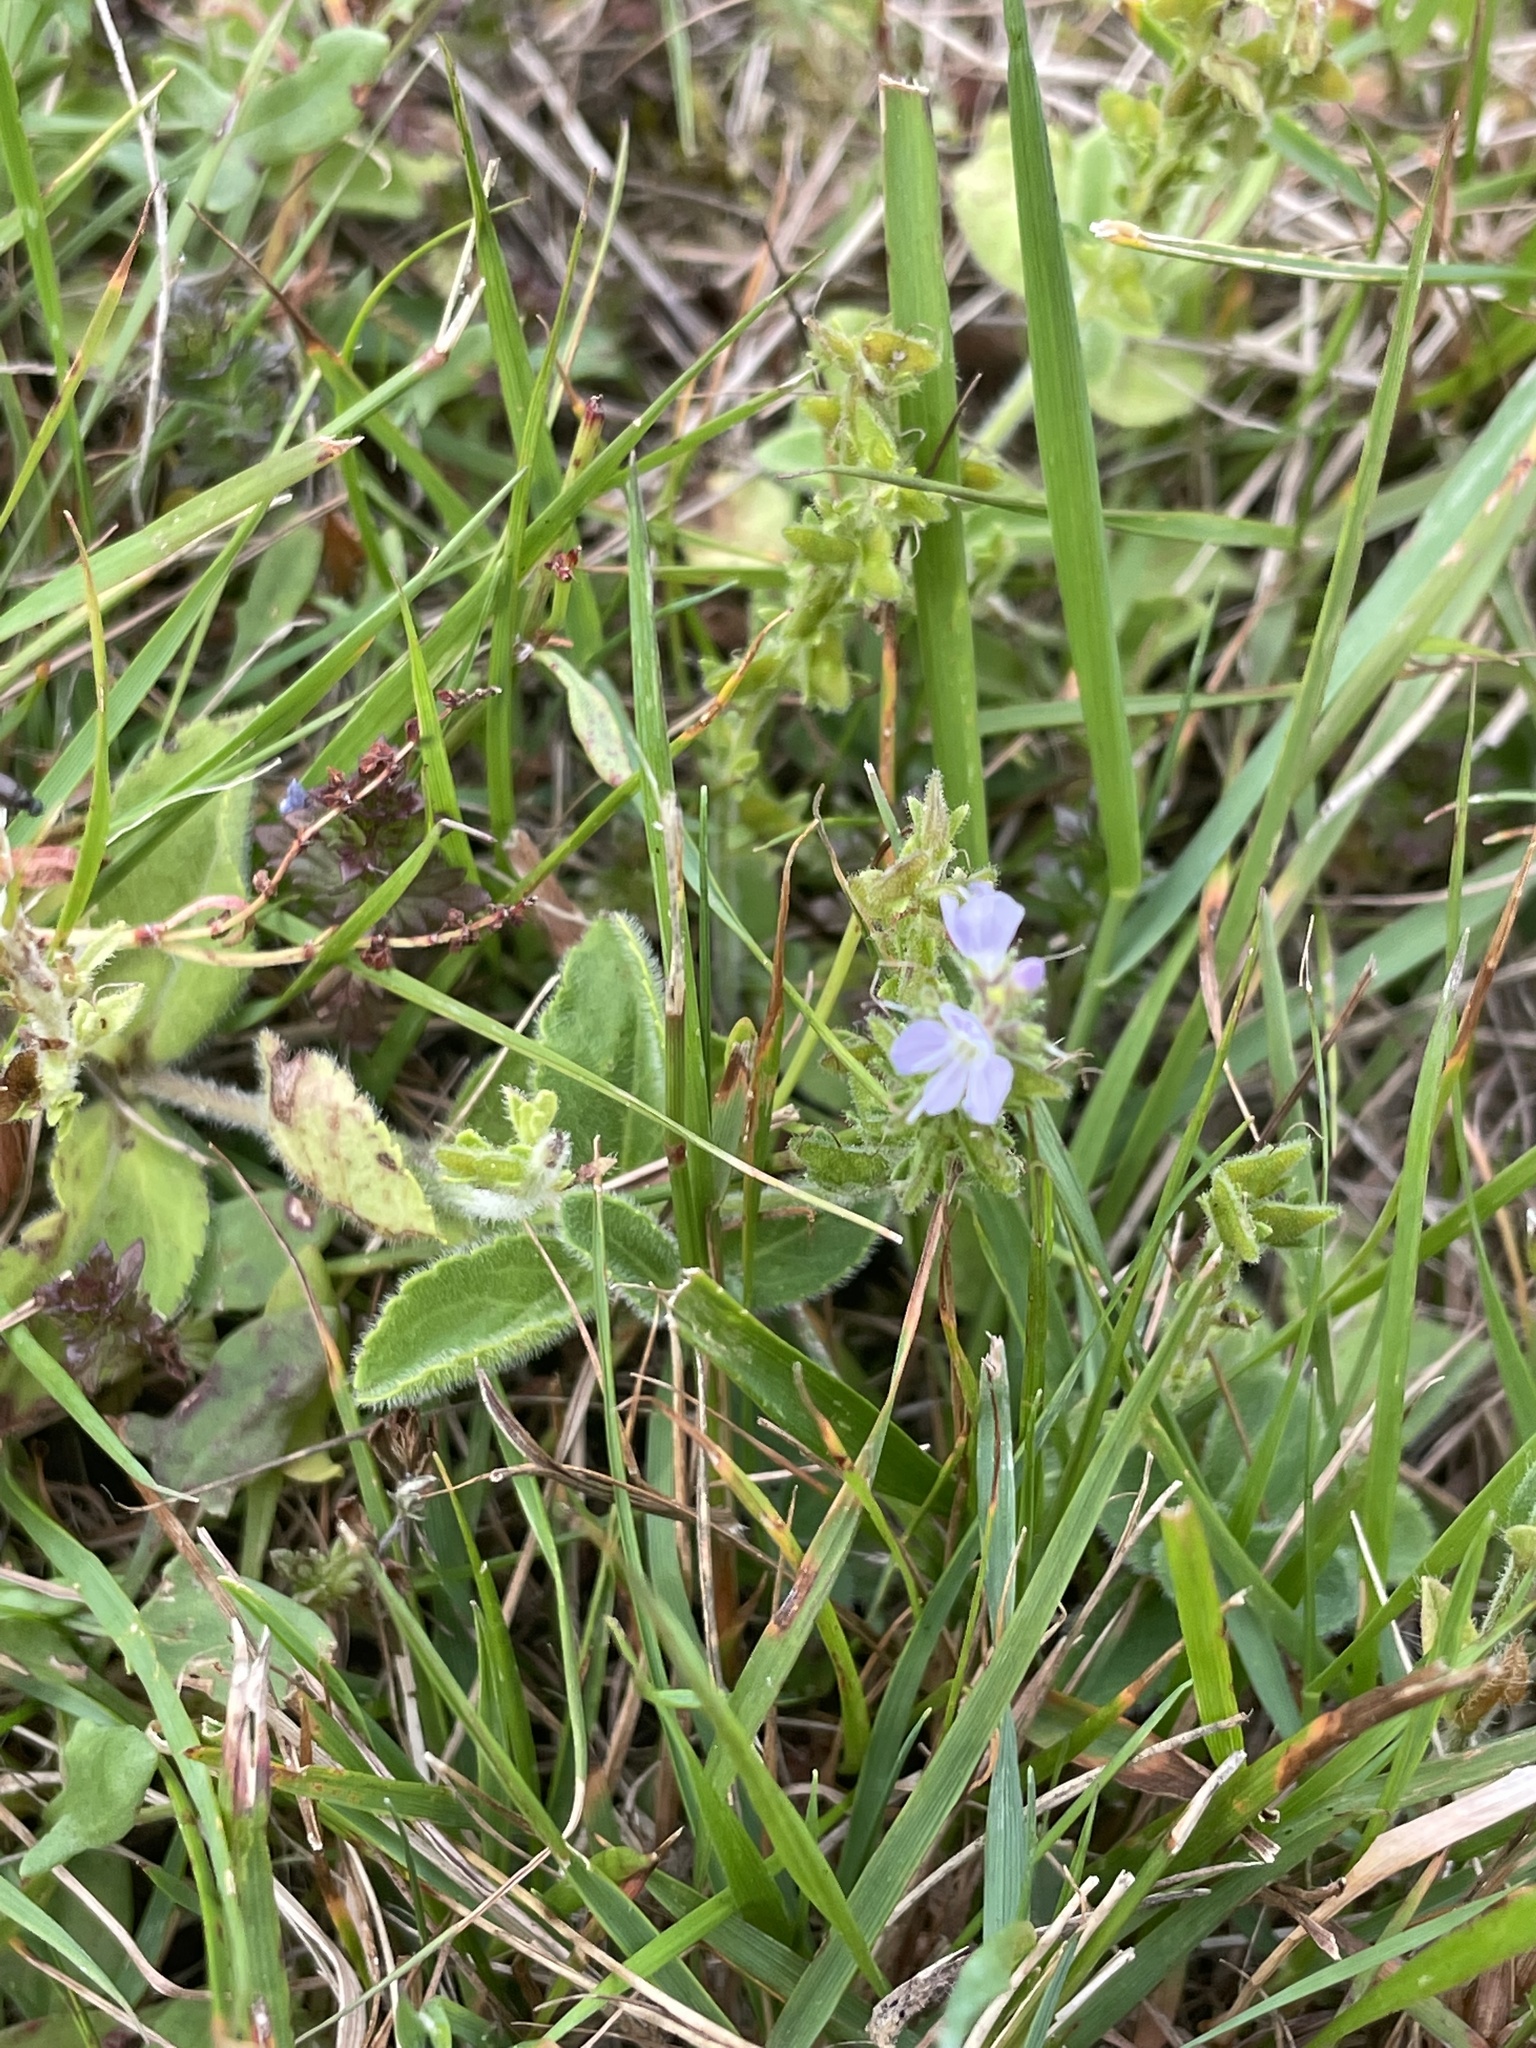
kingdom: Plantae
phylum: Tracheophyta
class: Magnoliopsida
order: Lamiales
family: Plantaginaceae
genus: Veronica
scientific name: Veronica officinalis
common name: Common speedwell
